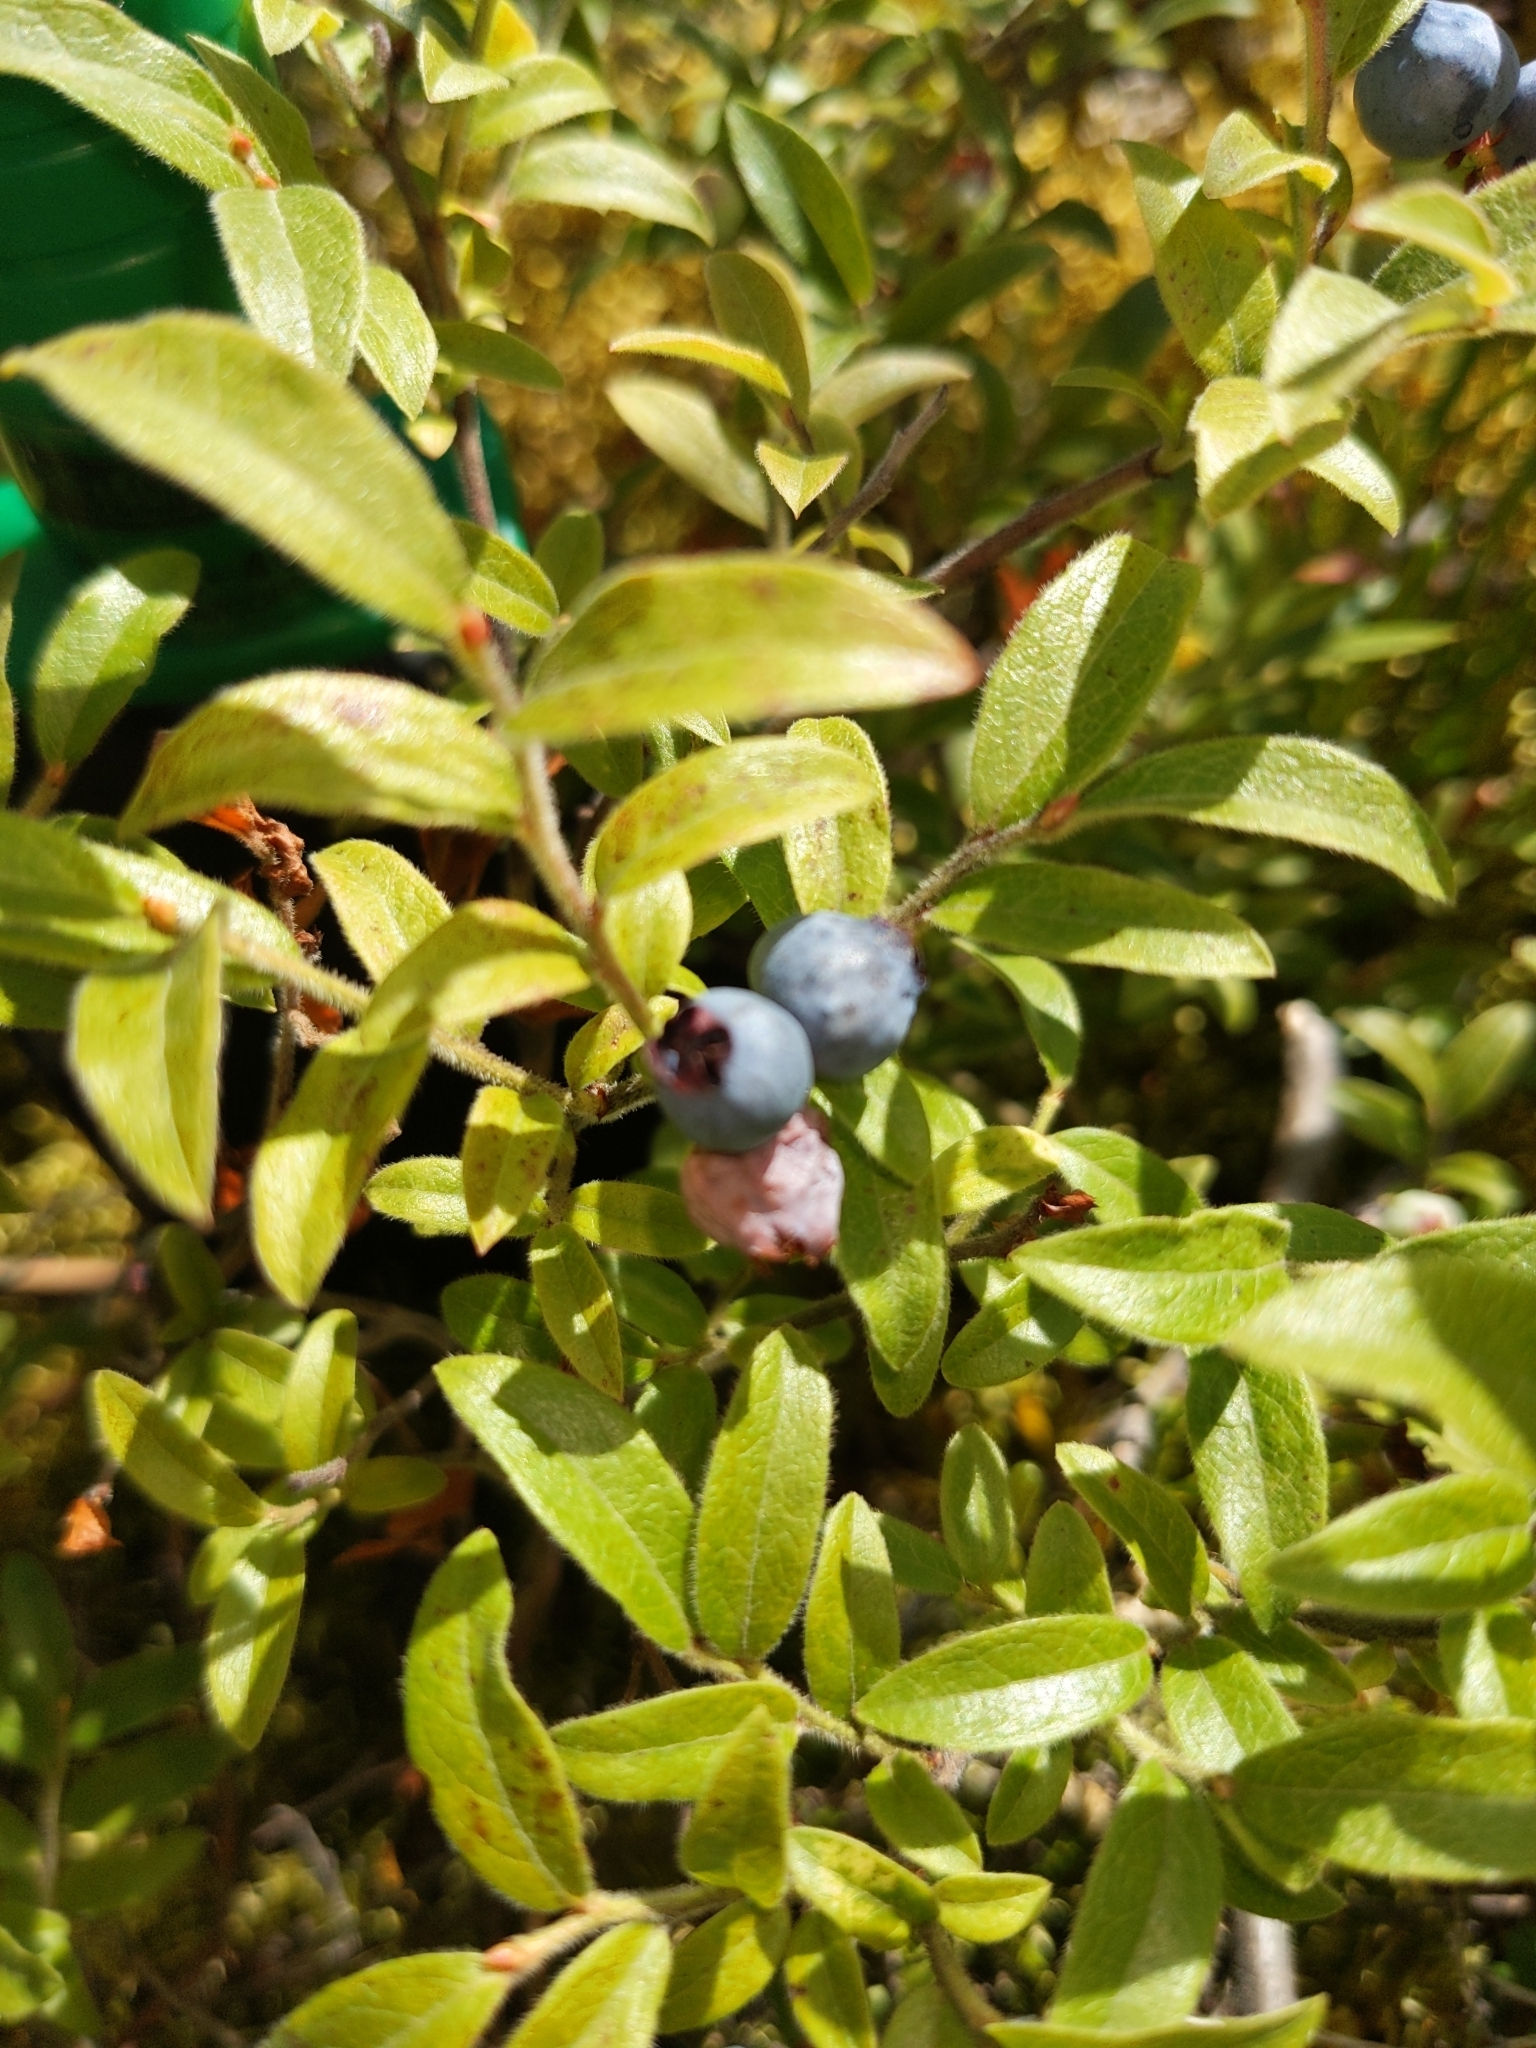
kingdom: Plantae
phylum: Tracheophyta
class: Magnoliopsida
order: Ericales
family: Ericaceae
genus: Vaccinium
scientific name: Vaccinium myrtilloides
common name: Canada blueberry
